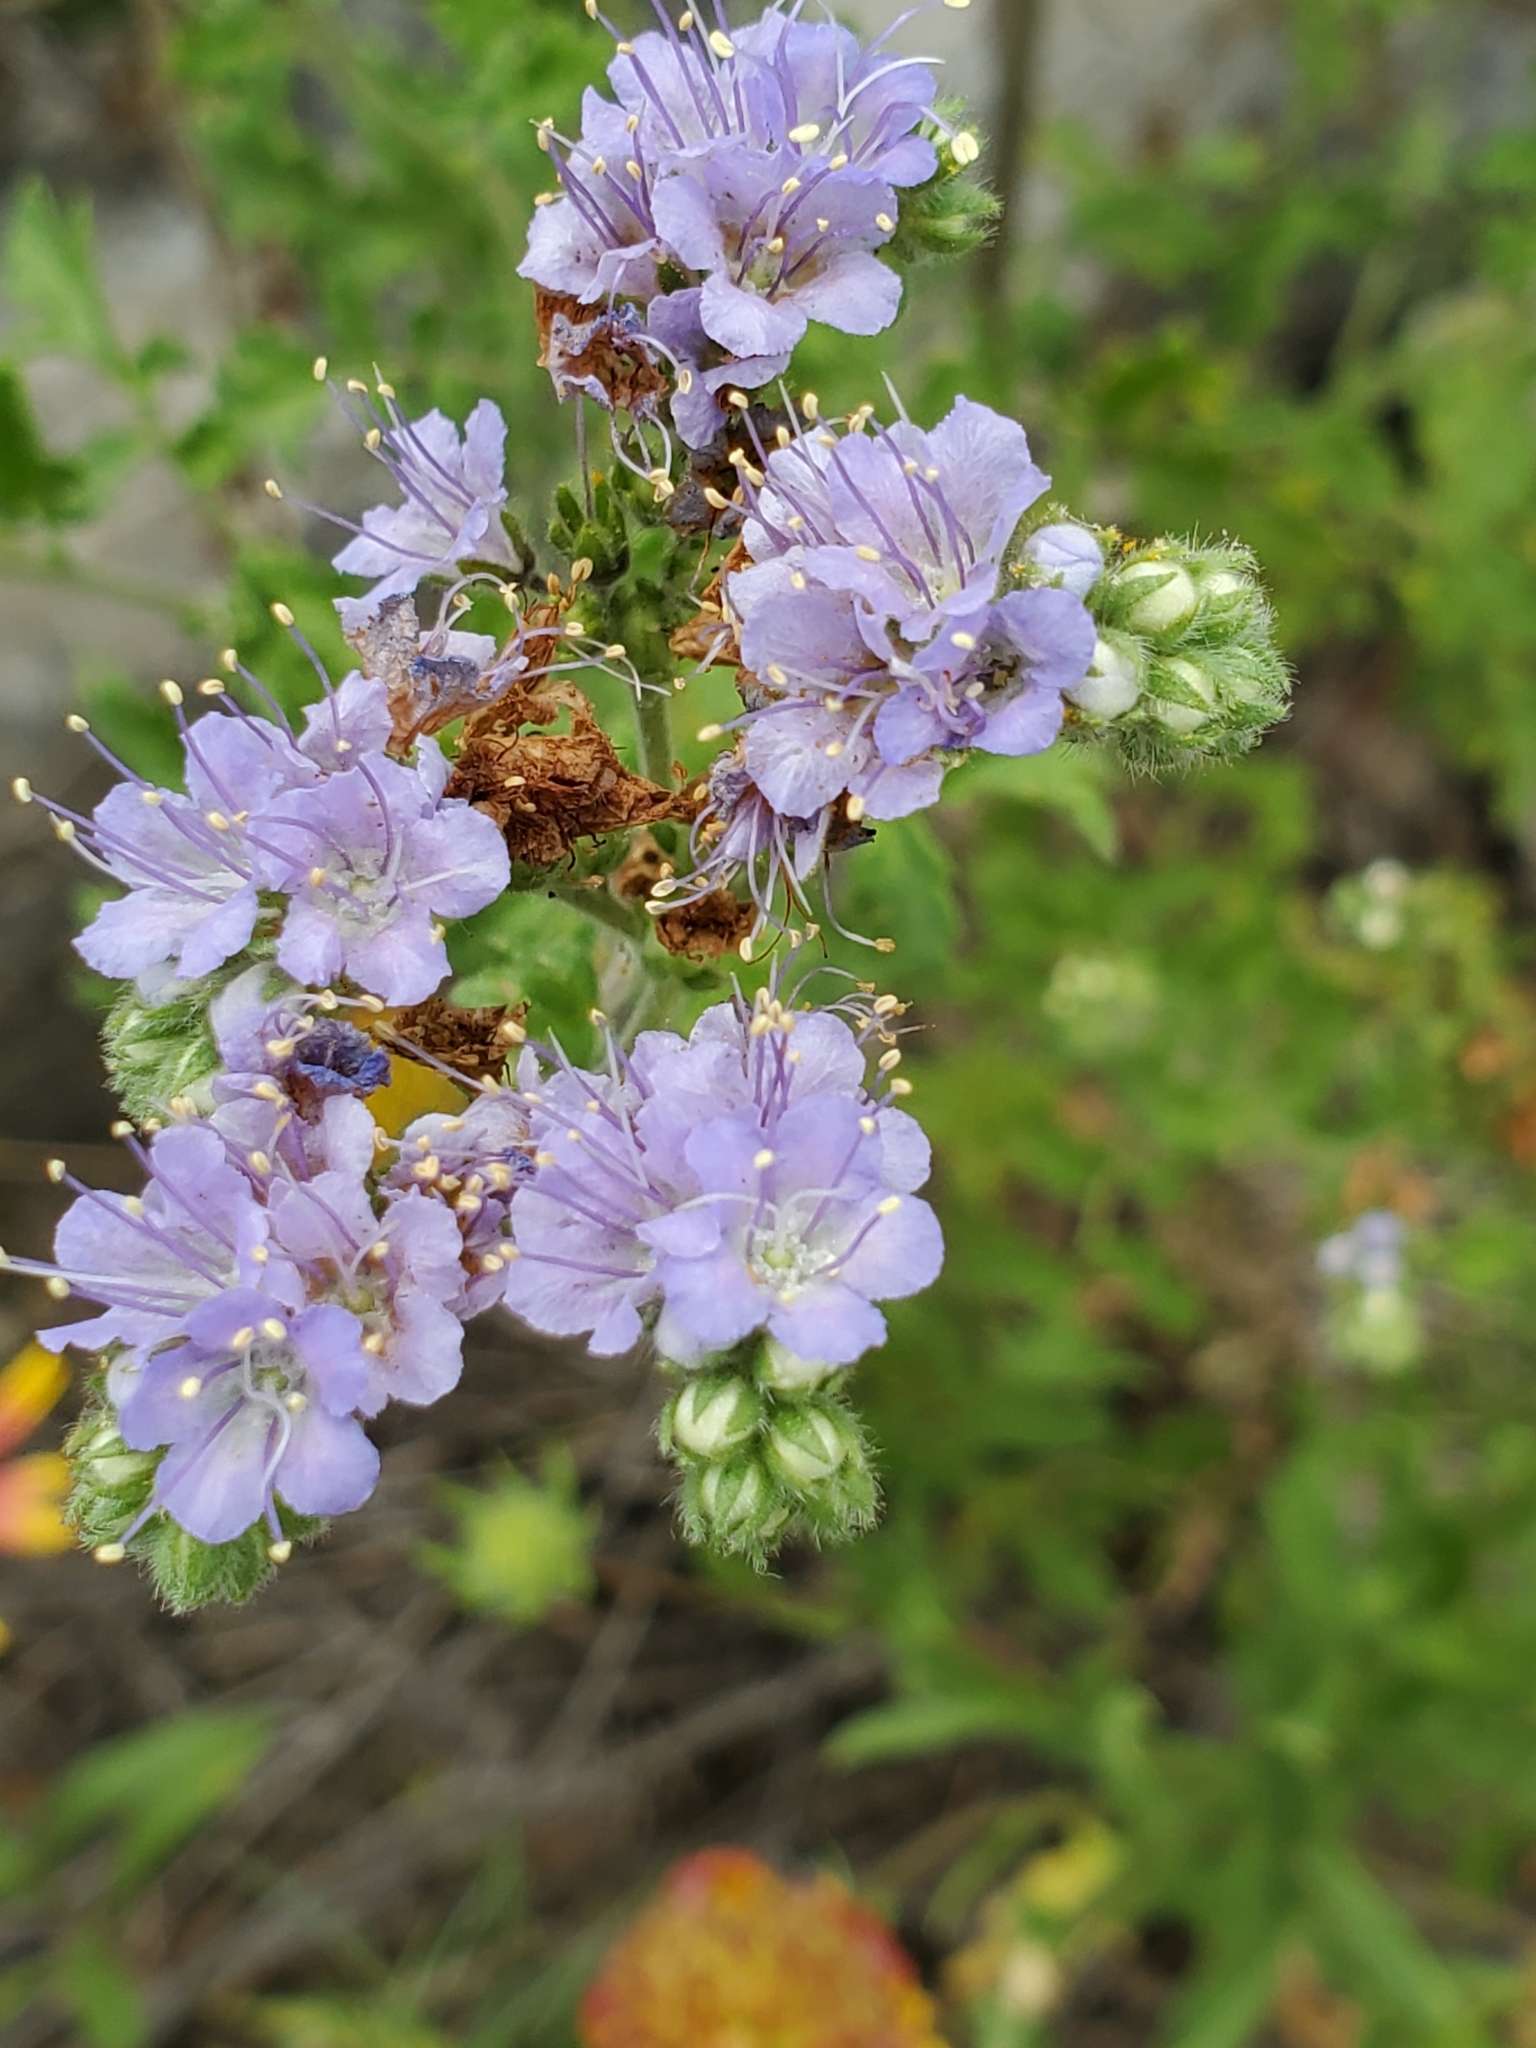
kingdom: Plantae
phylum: Tracheophyta
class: Magnoliopsida
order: Boraginales
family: Hydrophyllaceae
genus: Phacelia
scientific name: Phacelia congesta
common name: Blue curls
